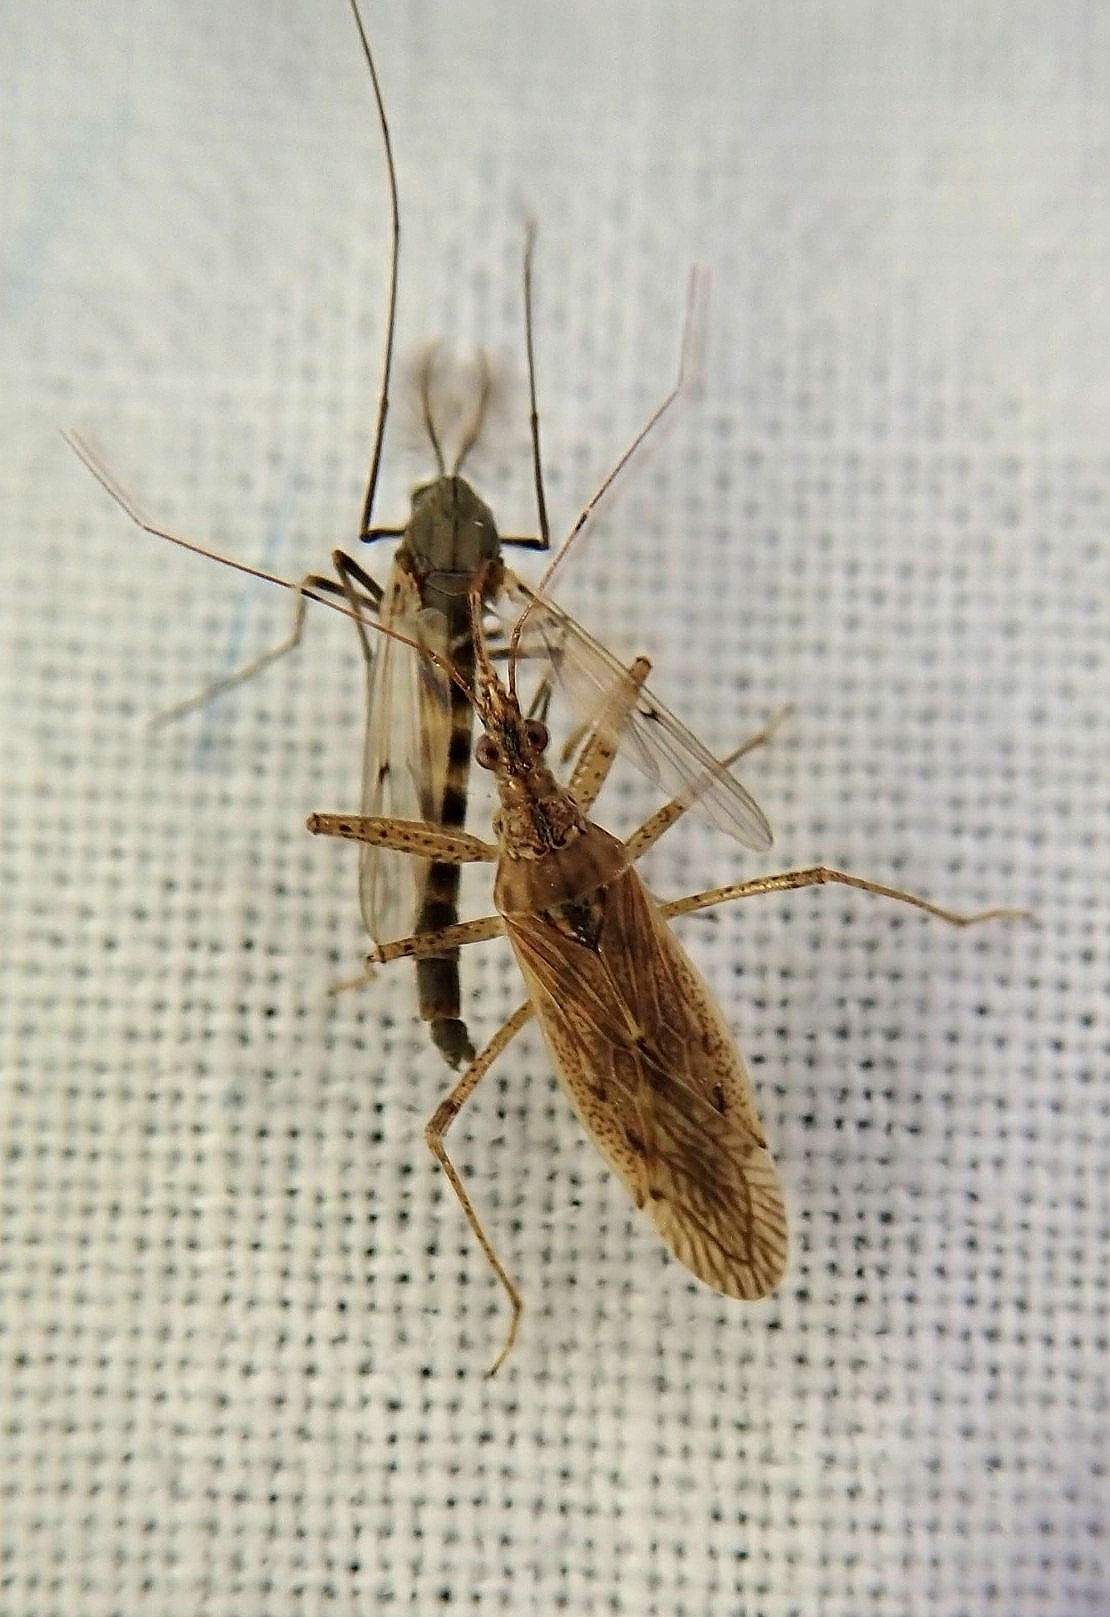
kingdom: Animalia
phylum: Arthropoda
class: Insecta
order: Hemiptera
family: Nabidae
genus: Nabis
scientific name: Nabis roseipennis
